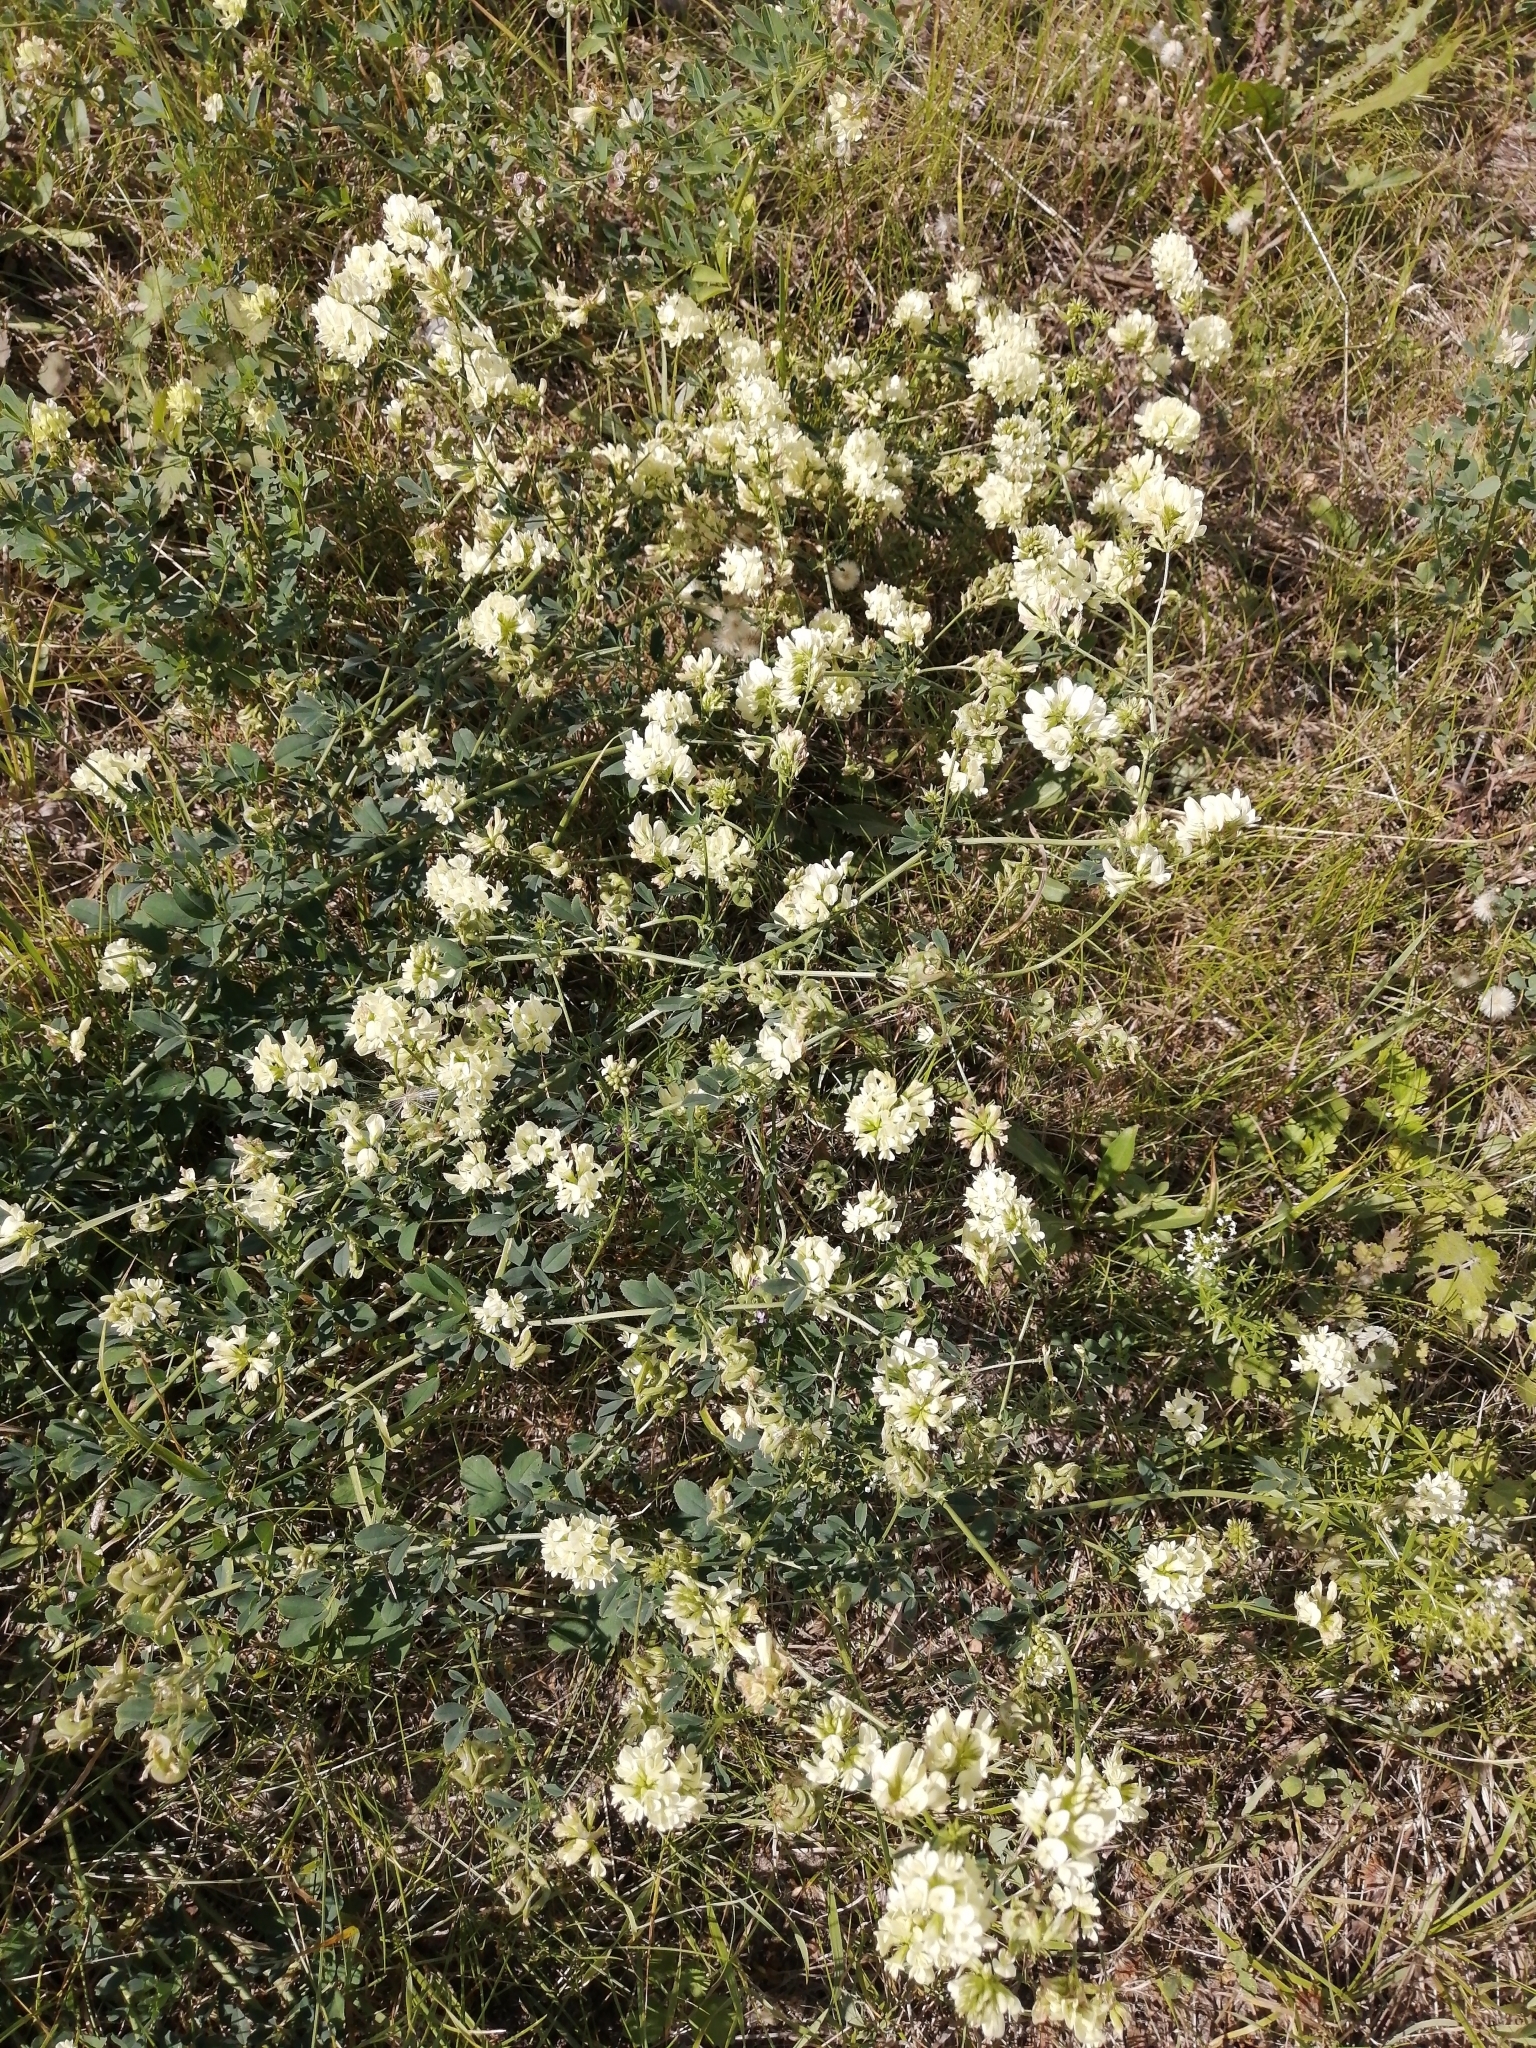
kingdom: Plantae
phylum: Tracheophyta
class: Magnoliopsida
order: Fabales
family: Fabaceae
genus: Medicago
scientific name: Medicago varia
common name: Sand lucerne
